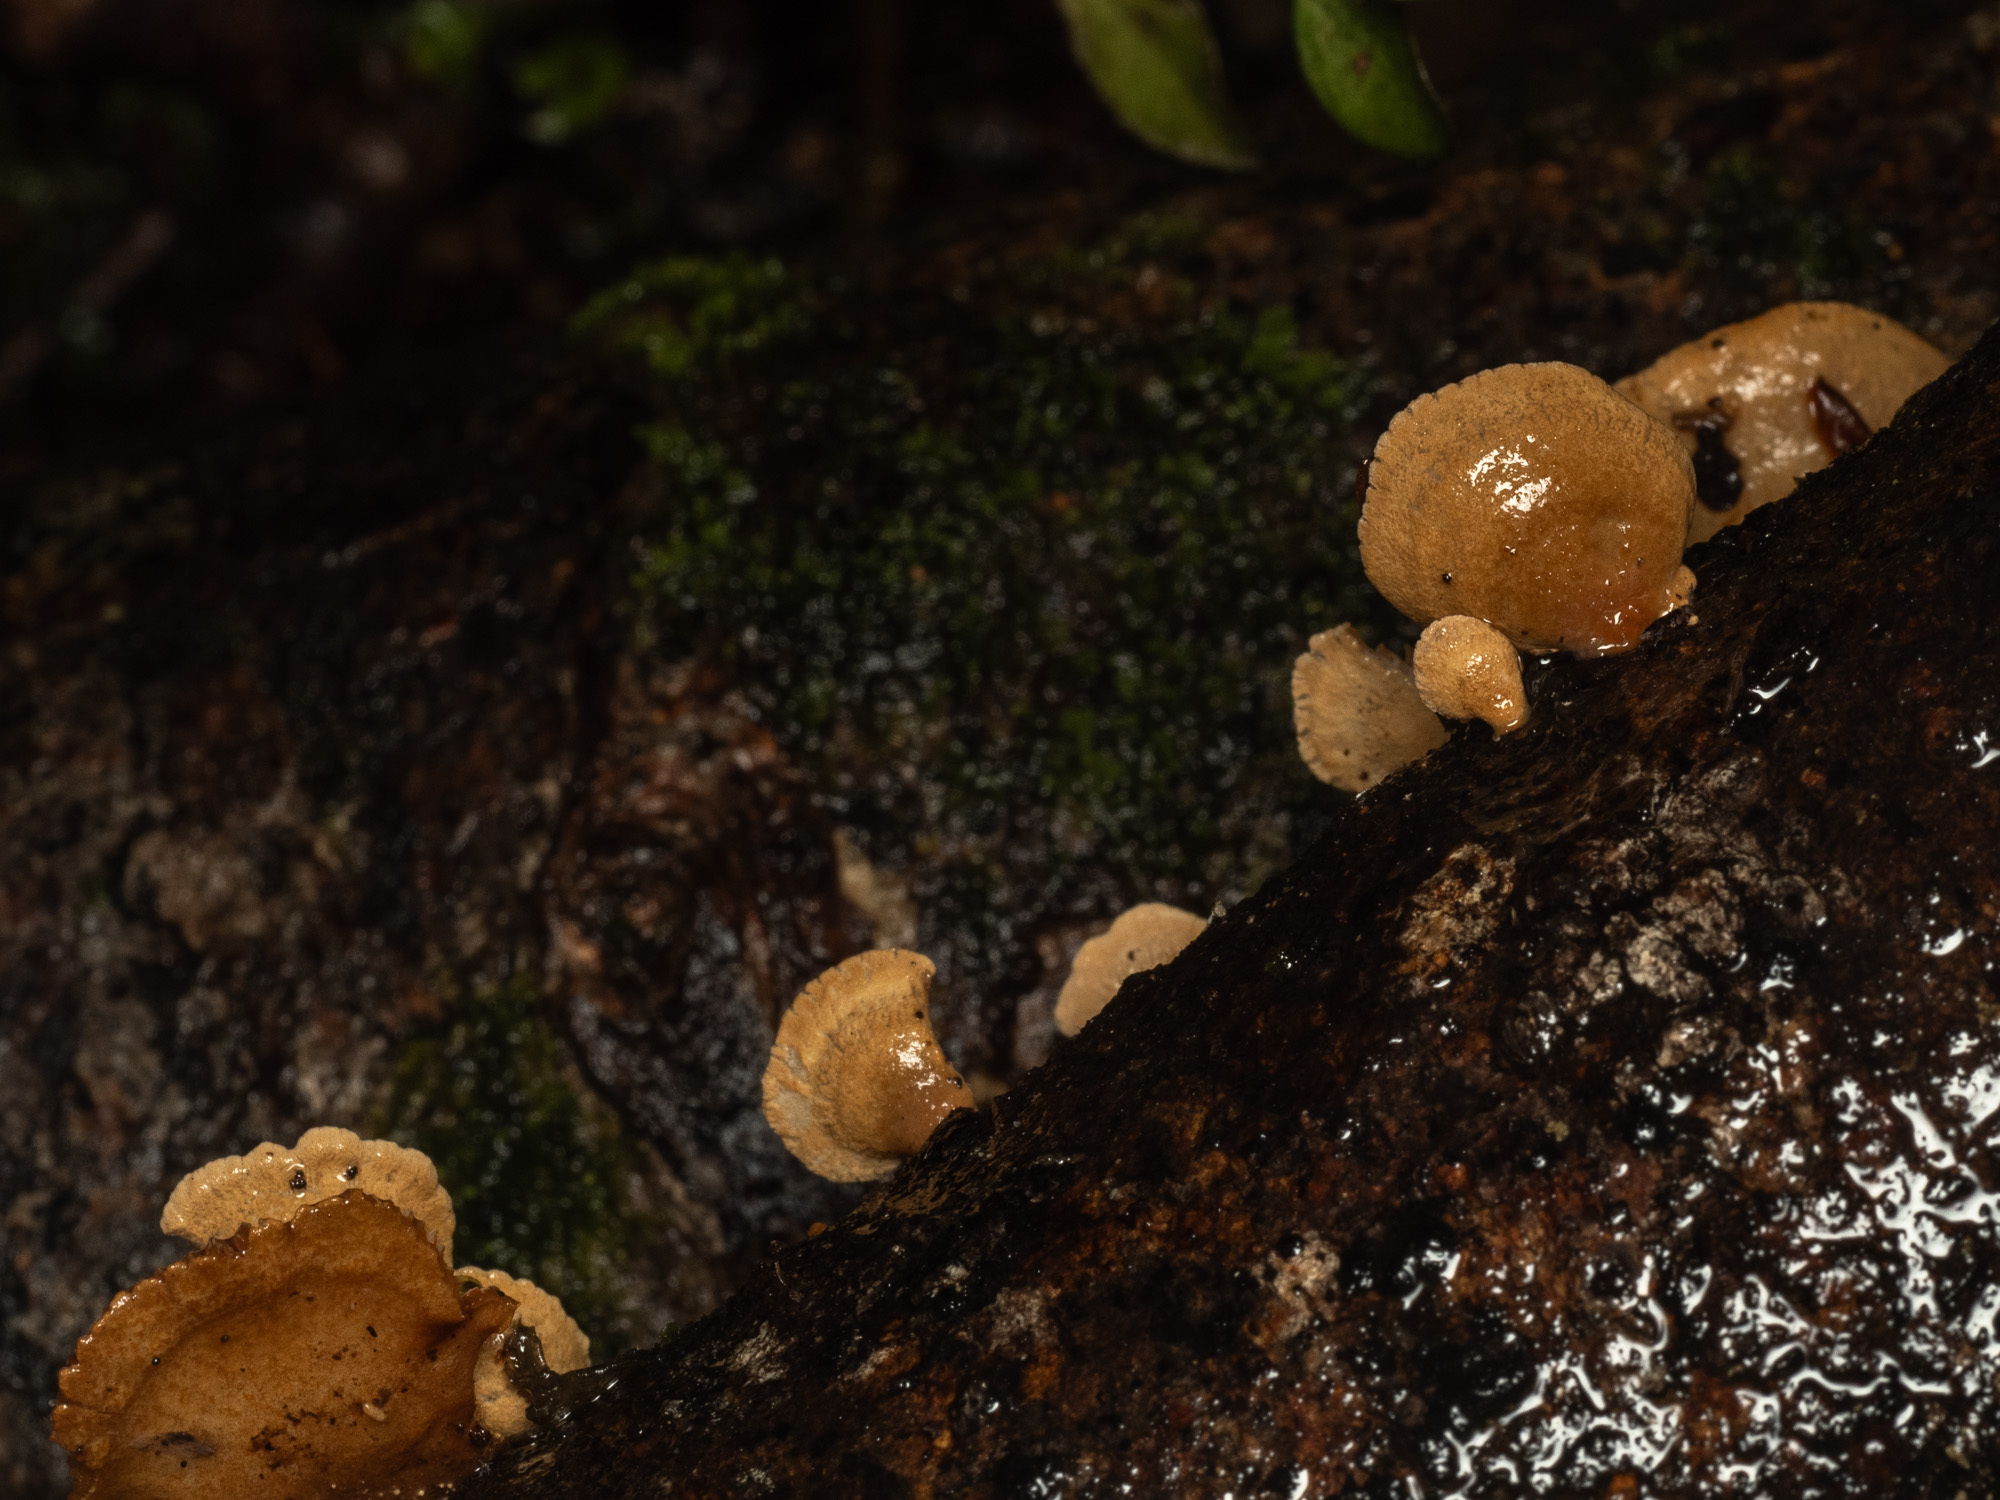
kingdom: Fungi
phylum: Basidiomycota
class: Agaricomycetes
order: Agaricales
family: Mycenaceae
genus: Panellus
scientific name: Panellus stipticus
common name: Bitter oysterling
